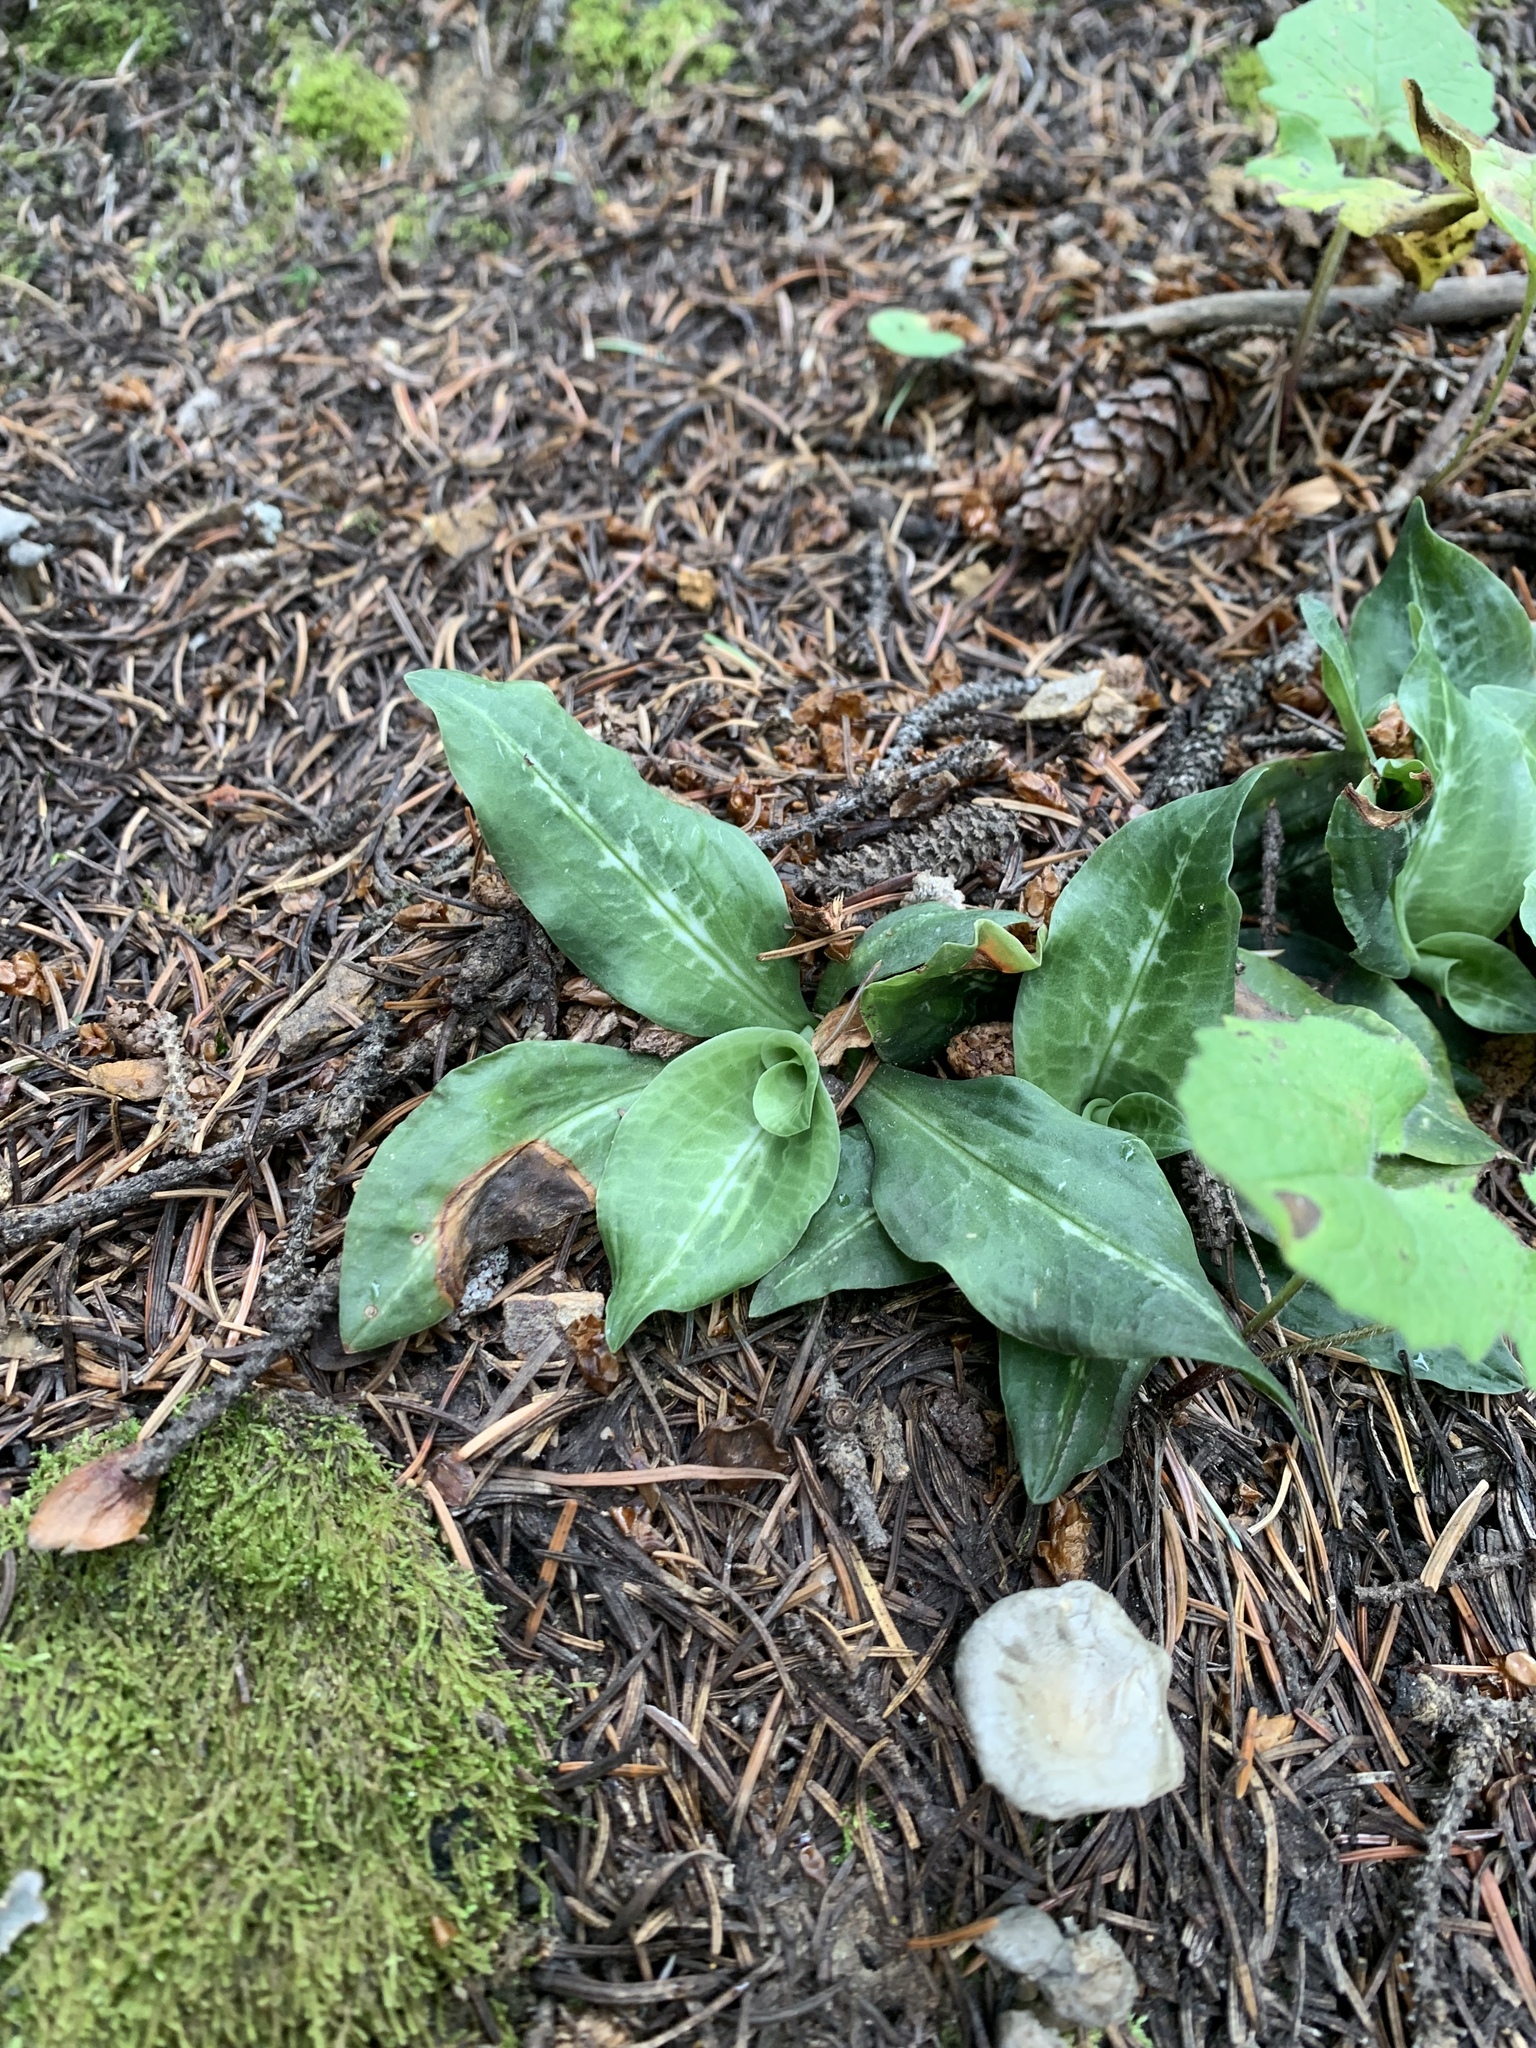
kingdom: Plantae
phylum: Tracheophyta
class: Liliopsida
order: Asparagales
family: Orchidaceae
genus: Goodyera
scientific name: Goodyera oblongifolia
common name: Giant rattlesnake-plantain
